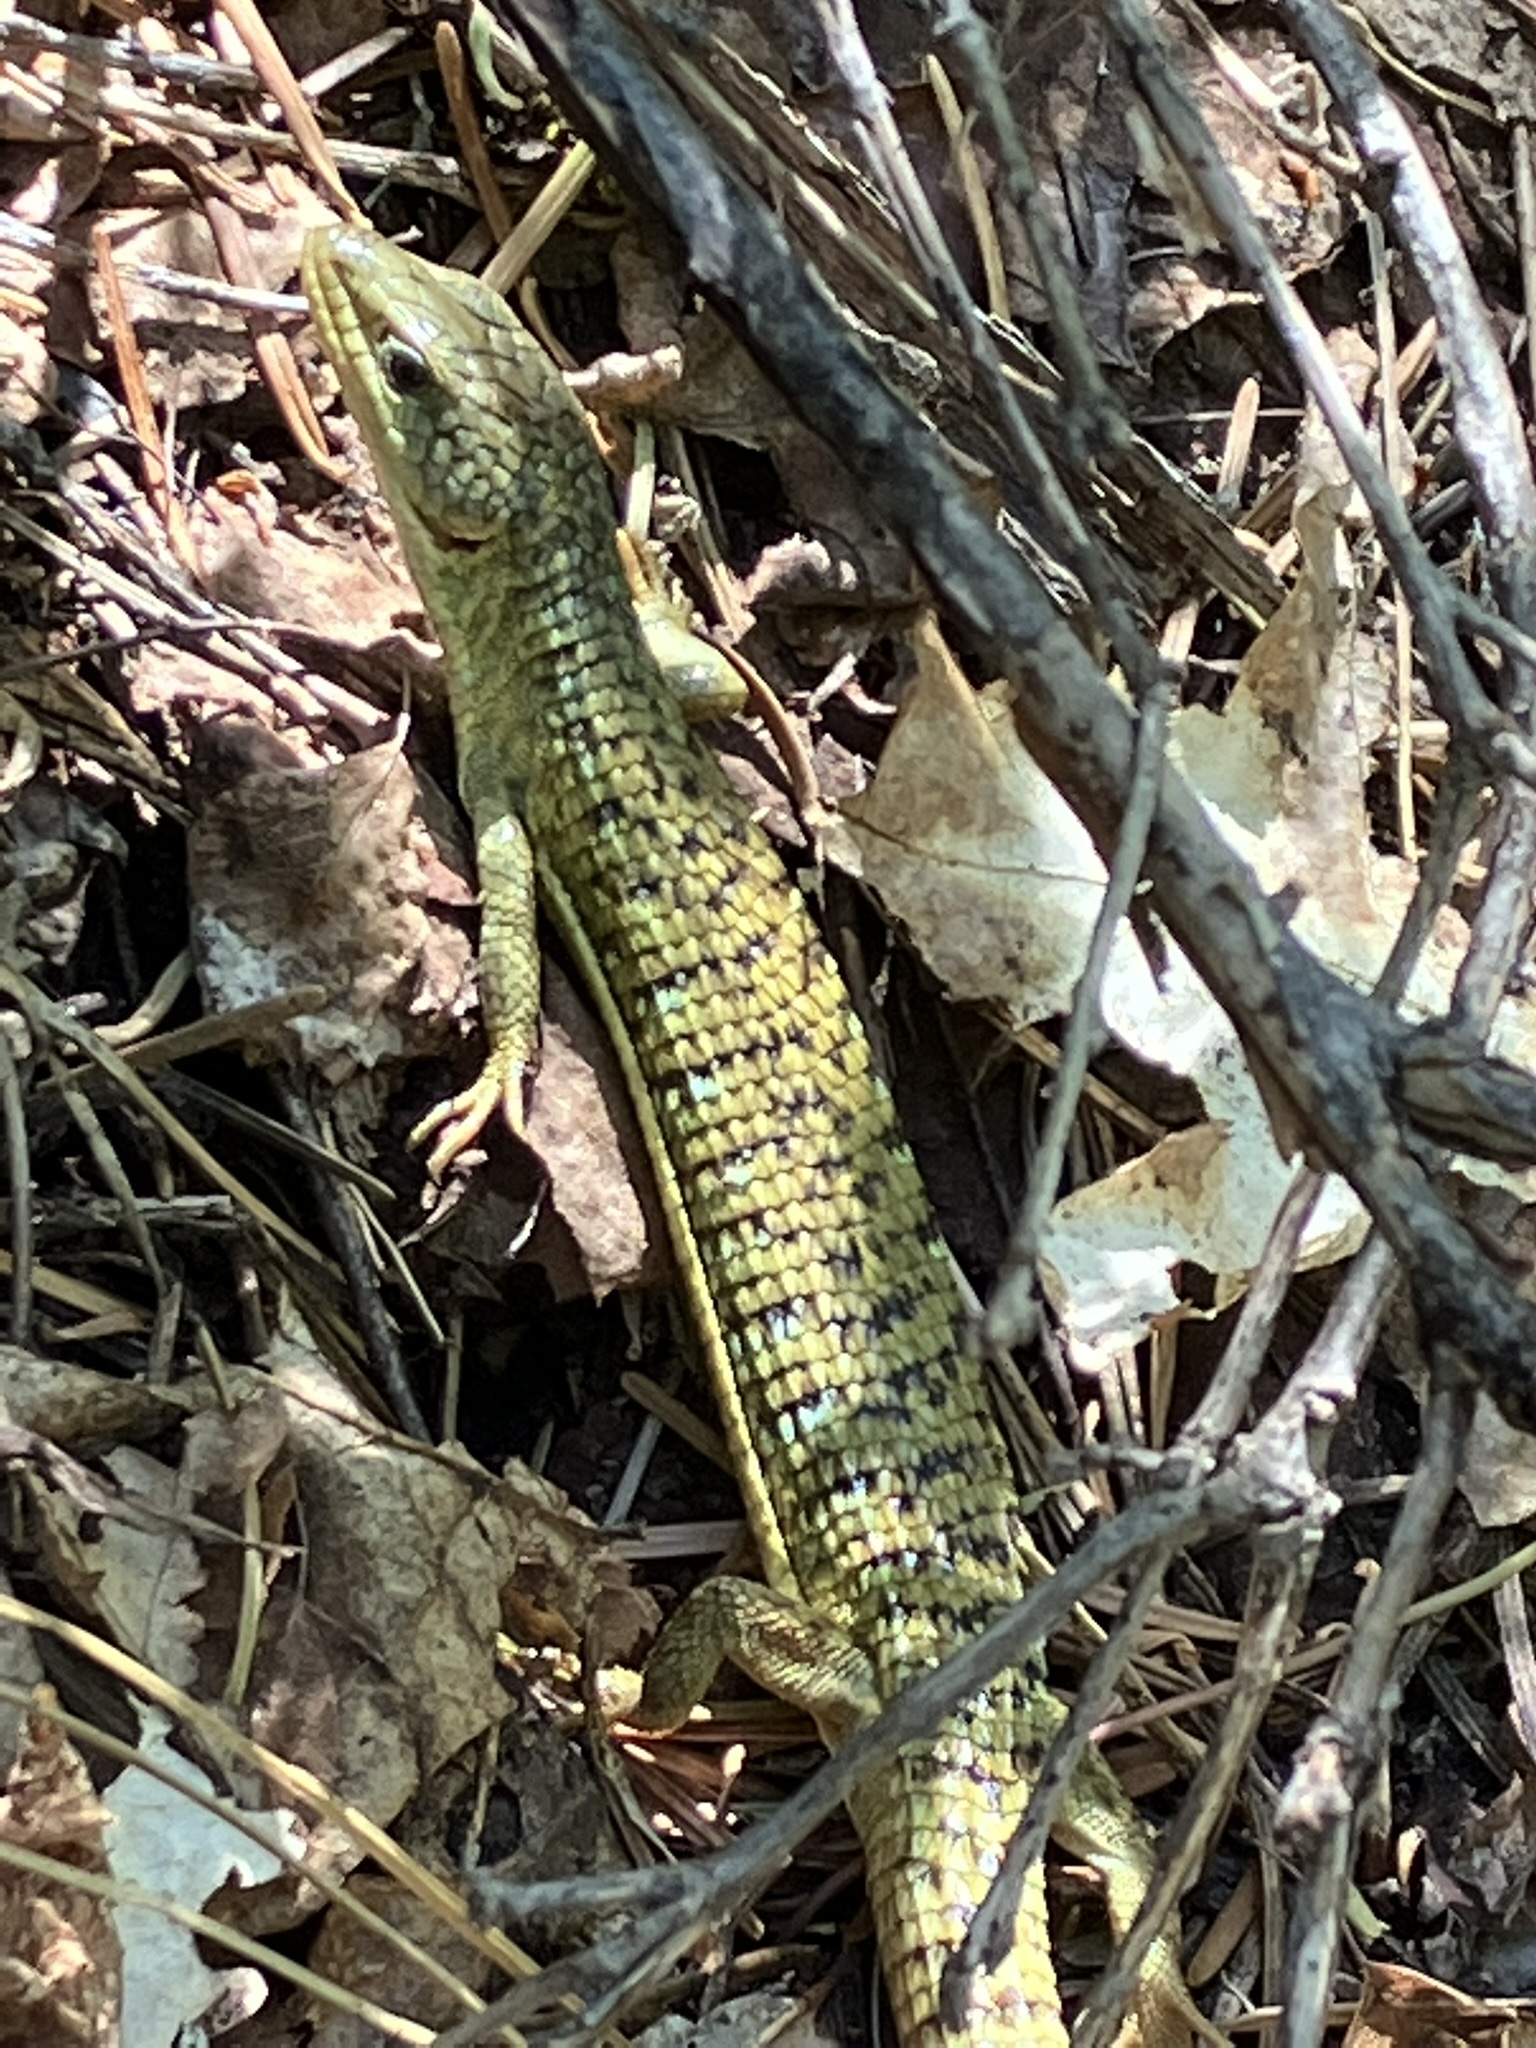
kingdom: Animalia
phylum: Chordata
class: Squamata
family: Anguidae
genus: Elgaria
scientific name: Elgaria coerulea
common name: Northern alligator lizard
